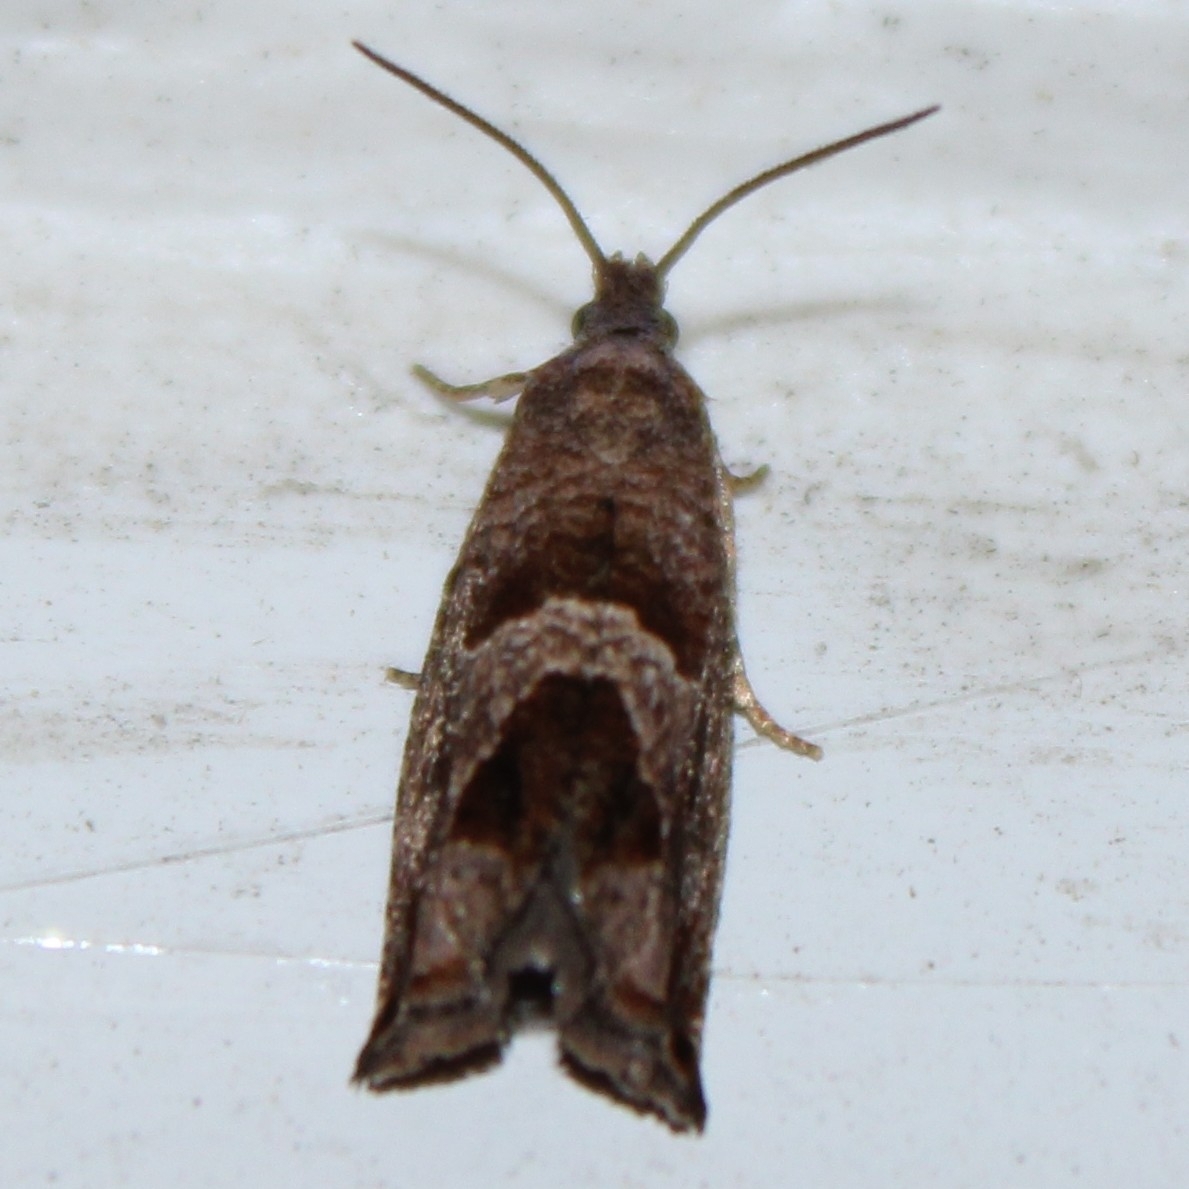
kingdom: Animalia
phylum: Arthropoda
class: Insecta
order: Lepidoptera
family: Tortricidae
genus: Sonia
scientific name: Sonia canadana
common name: Canadian sonia moth
